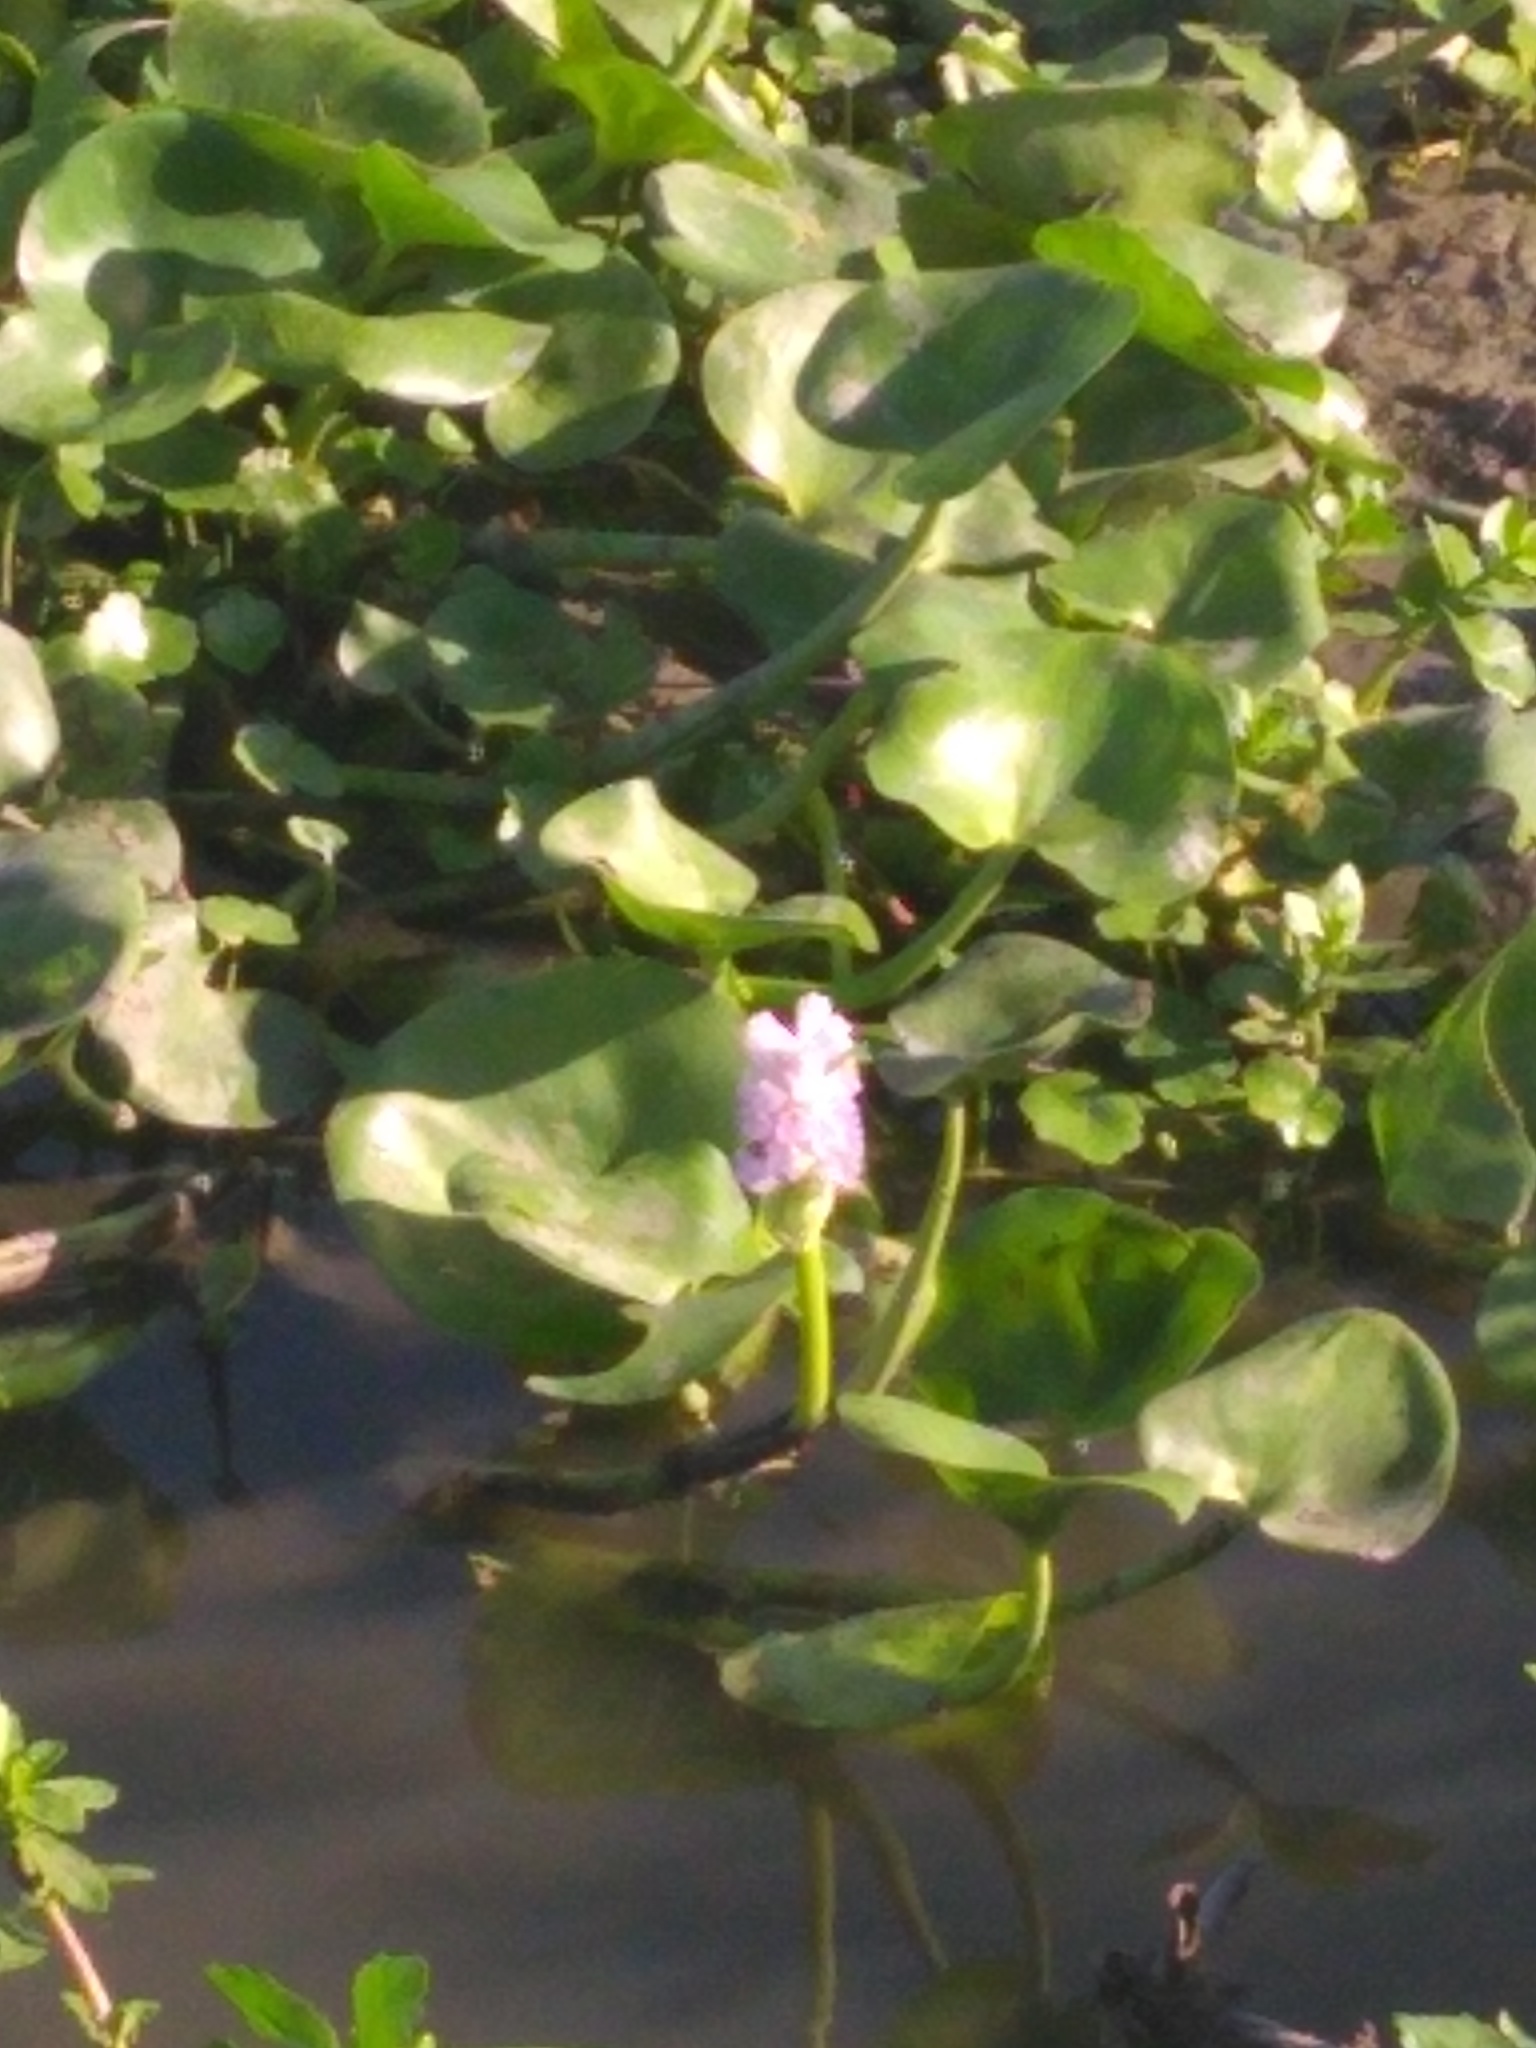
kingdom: Plantae
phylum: Tracheophyta
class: Liliopsida
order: Commelinales
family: Pontederiaceae
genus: Pontederia
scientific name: Pontederia rotundifolia
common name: Tropical pickerel-weed
